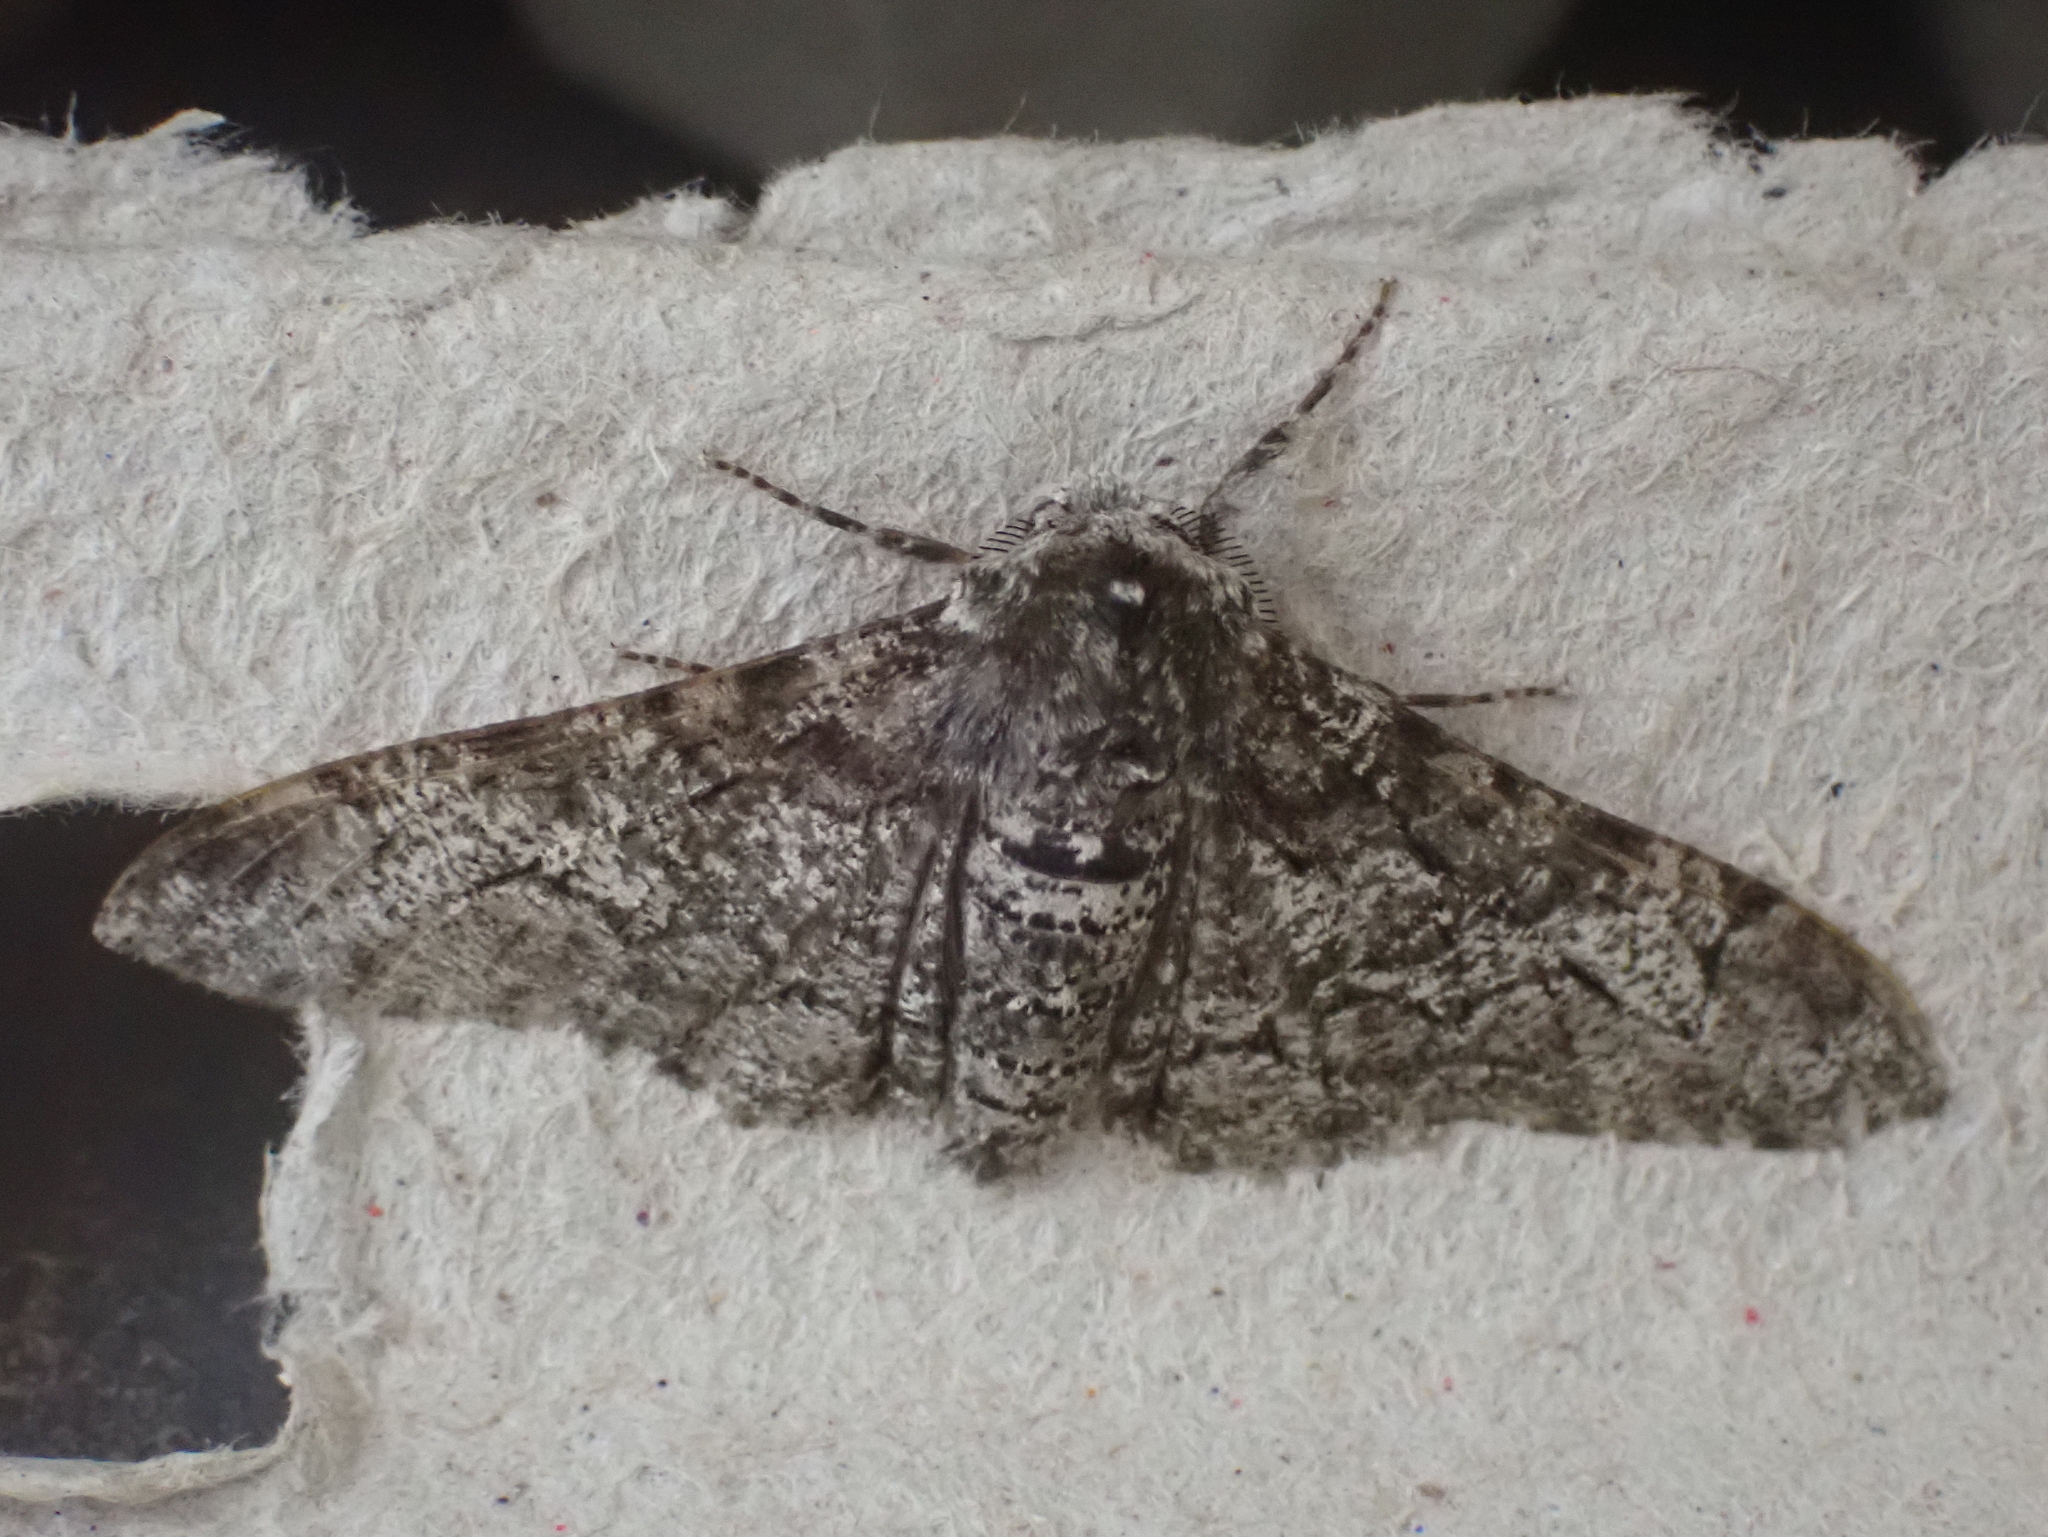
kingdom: Animalia
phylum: Arthropoda
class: Insecta
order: Lepidoptera
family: Geometridae
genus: Biston
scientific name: Biston betularia
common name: Peppered moth
